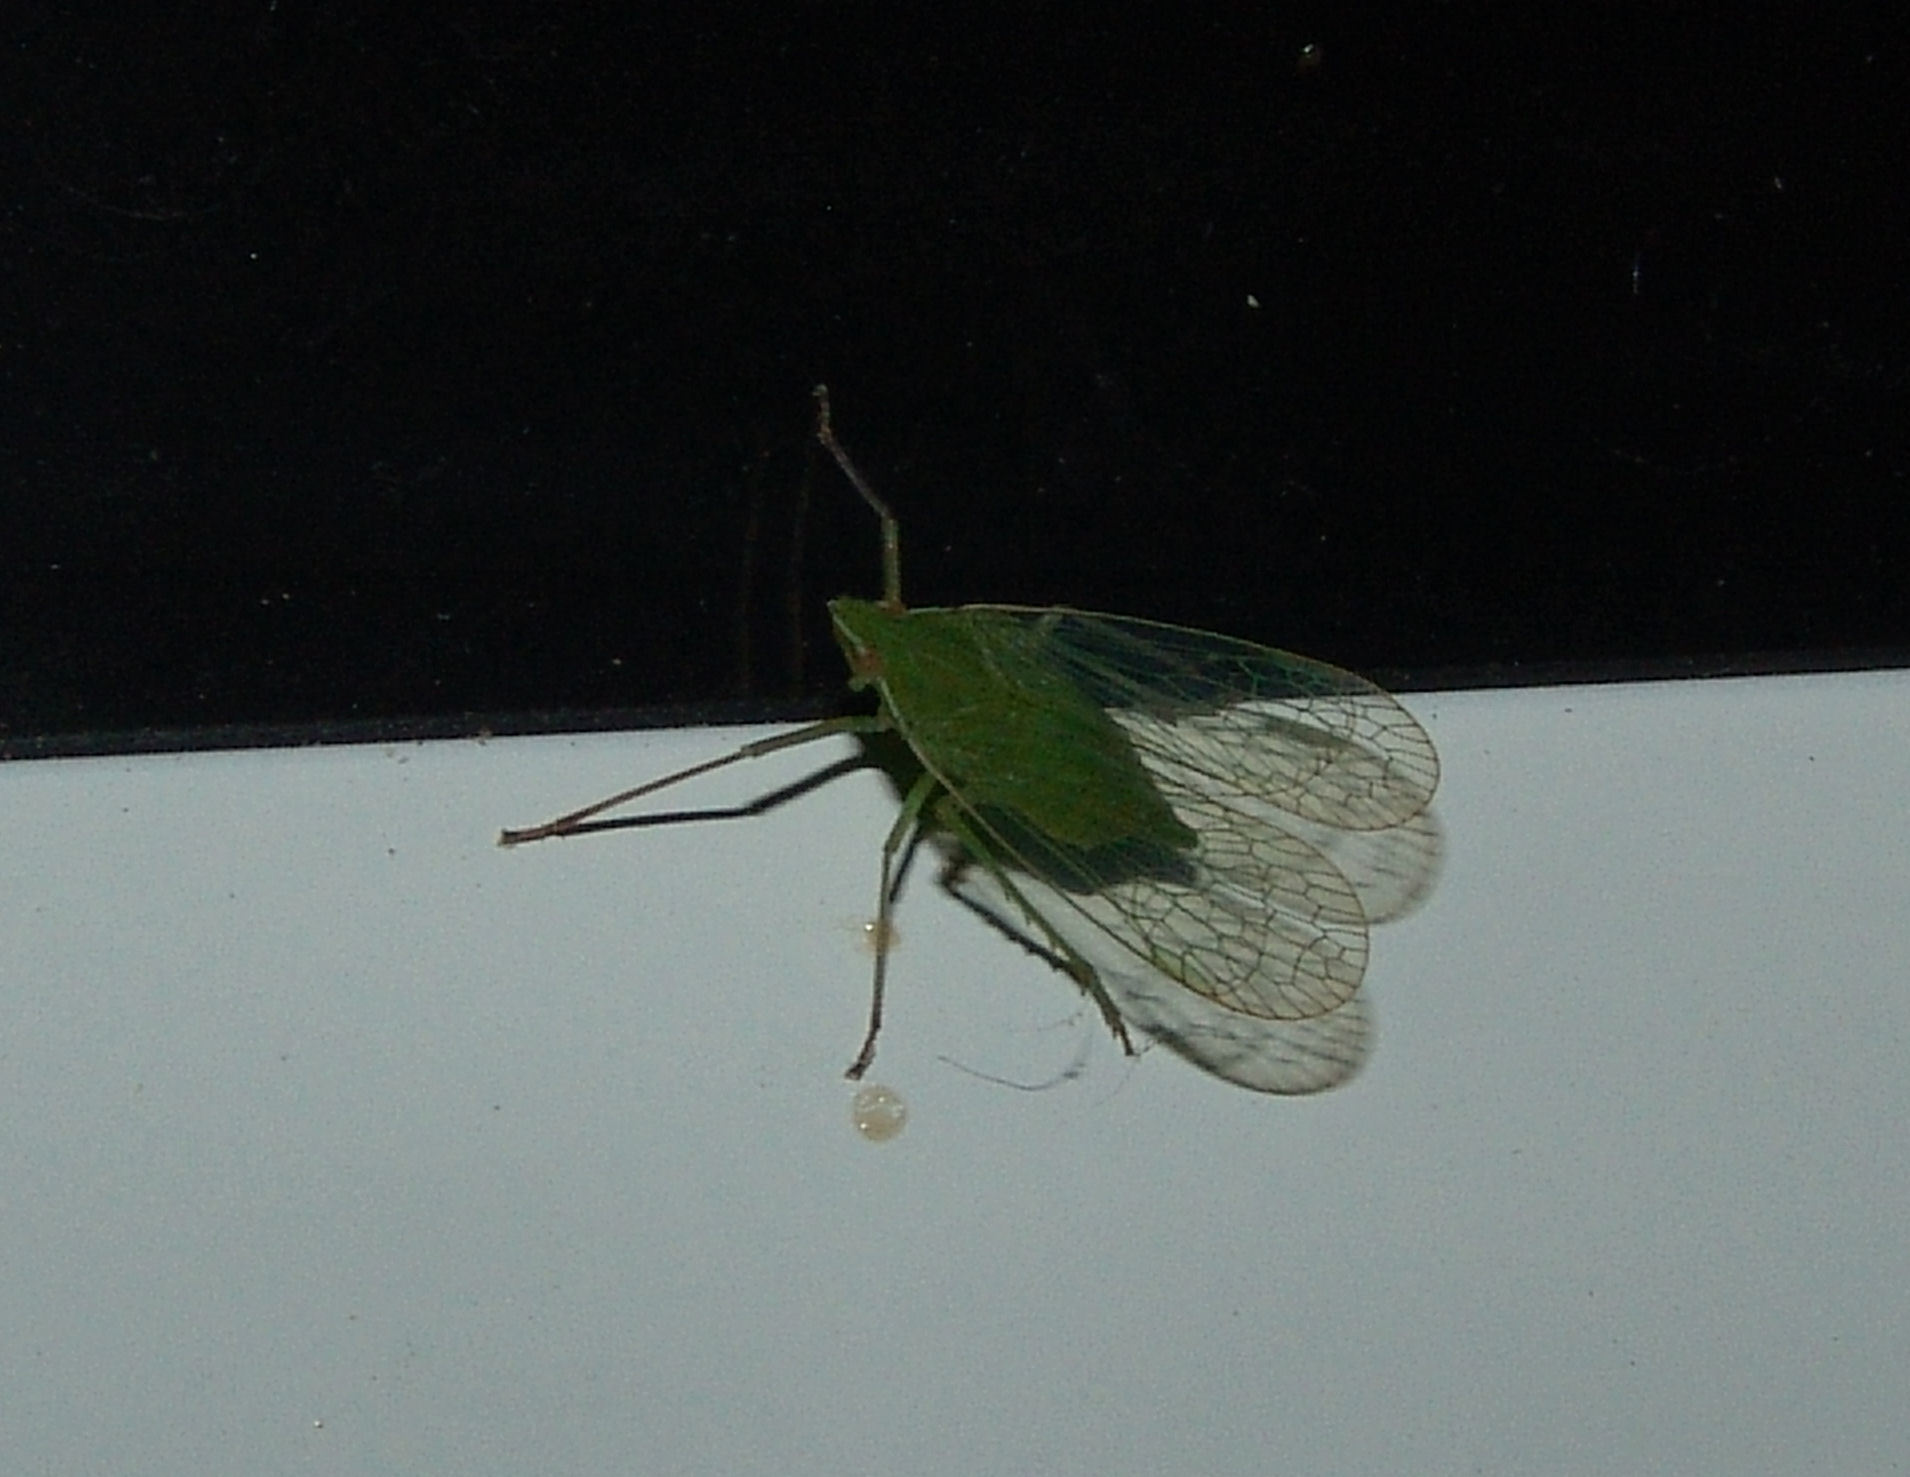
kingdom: Animalia
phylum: Arthropoda
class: Insecta
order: Hemiptera
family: Dictyopharidae
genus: Nersia
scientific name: Nersia florida
